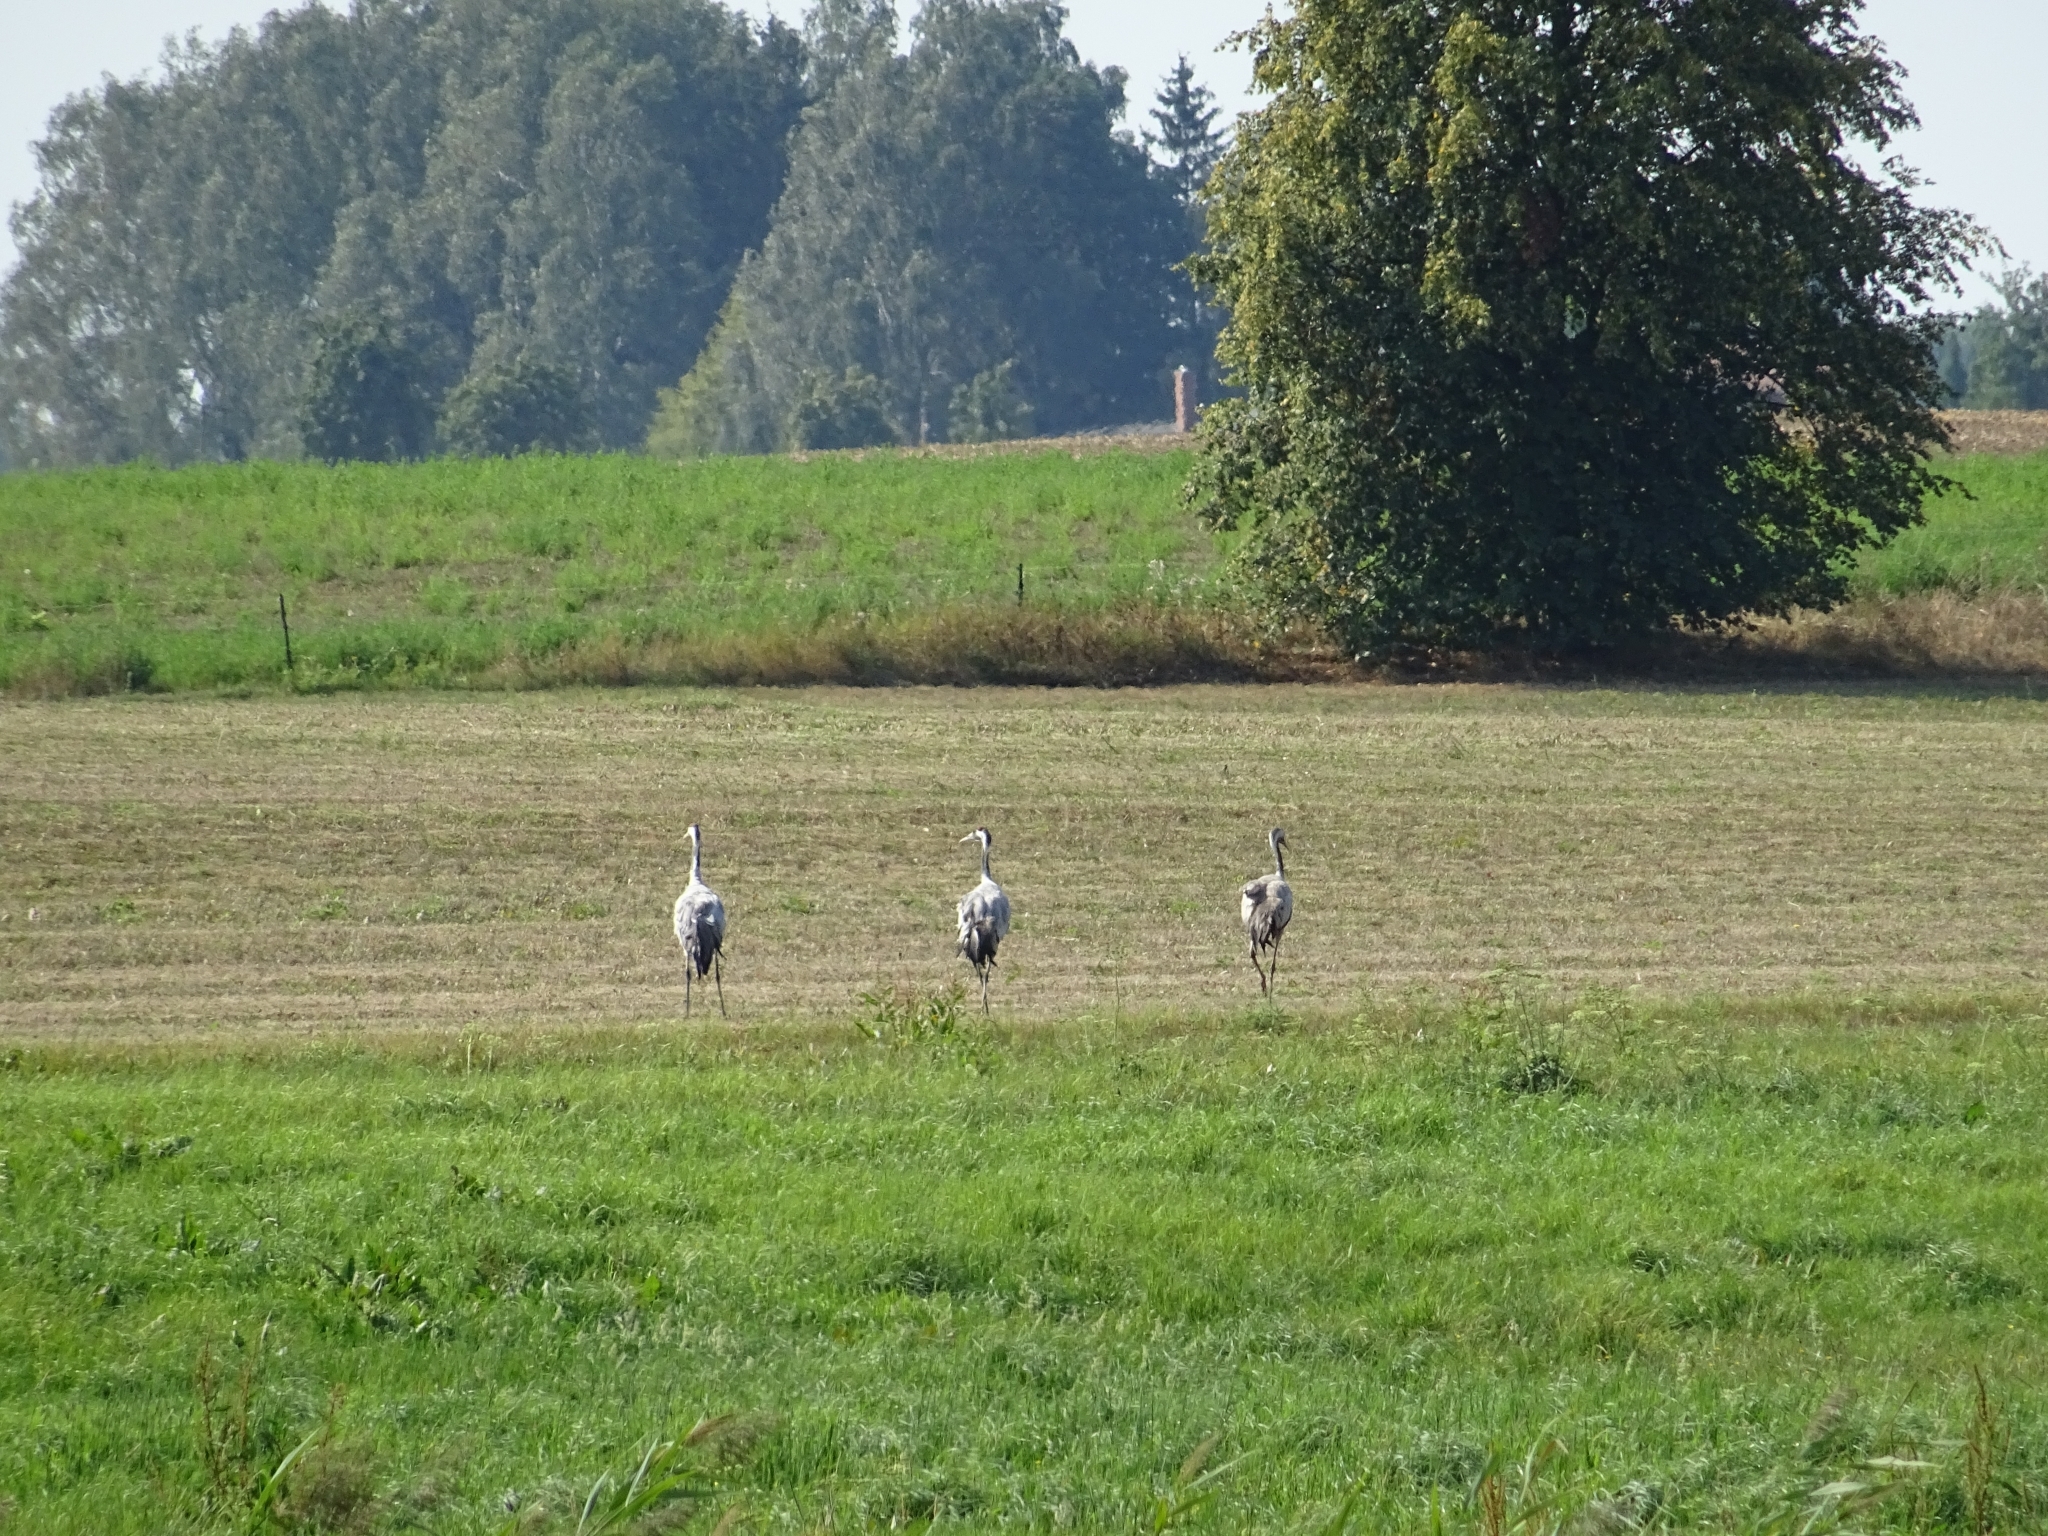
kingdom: Animalia
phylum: Chordata
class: Aves
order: Gruiformes
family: Gruidae
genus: Grus
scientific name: Grus grus
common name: Common crane
